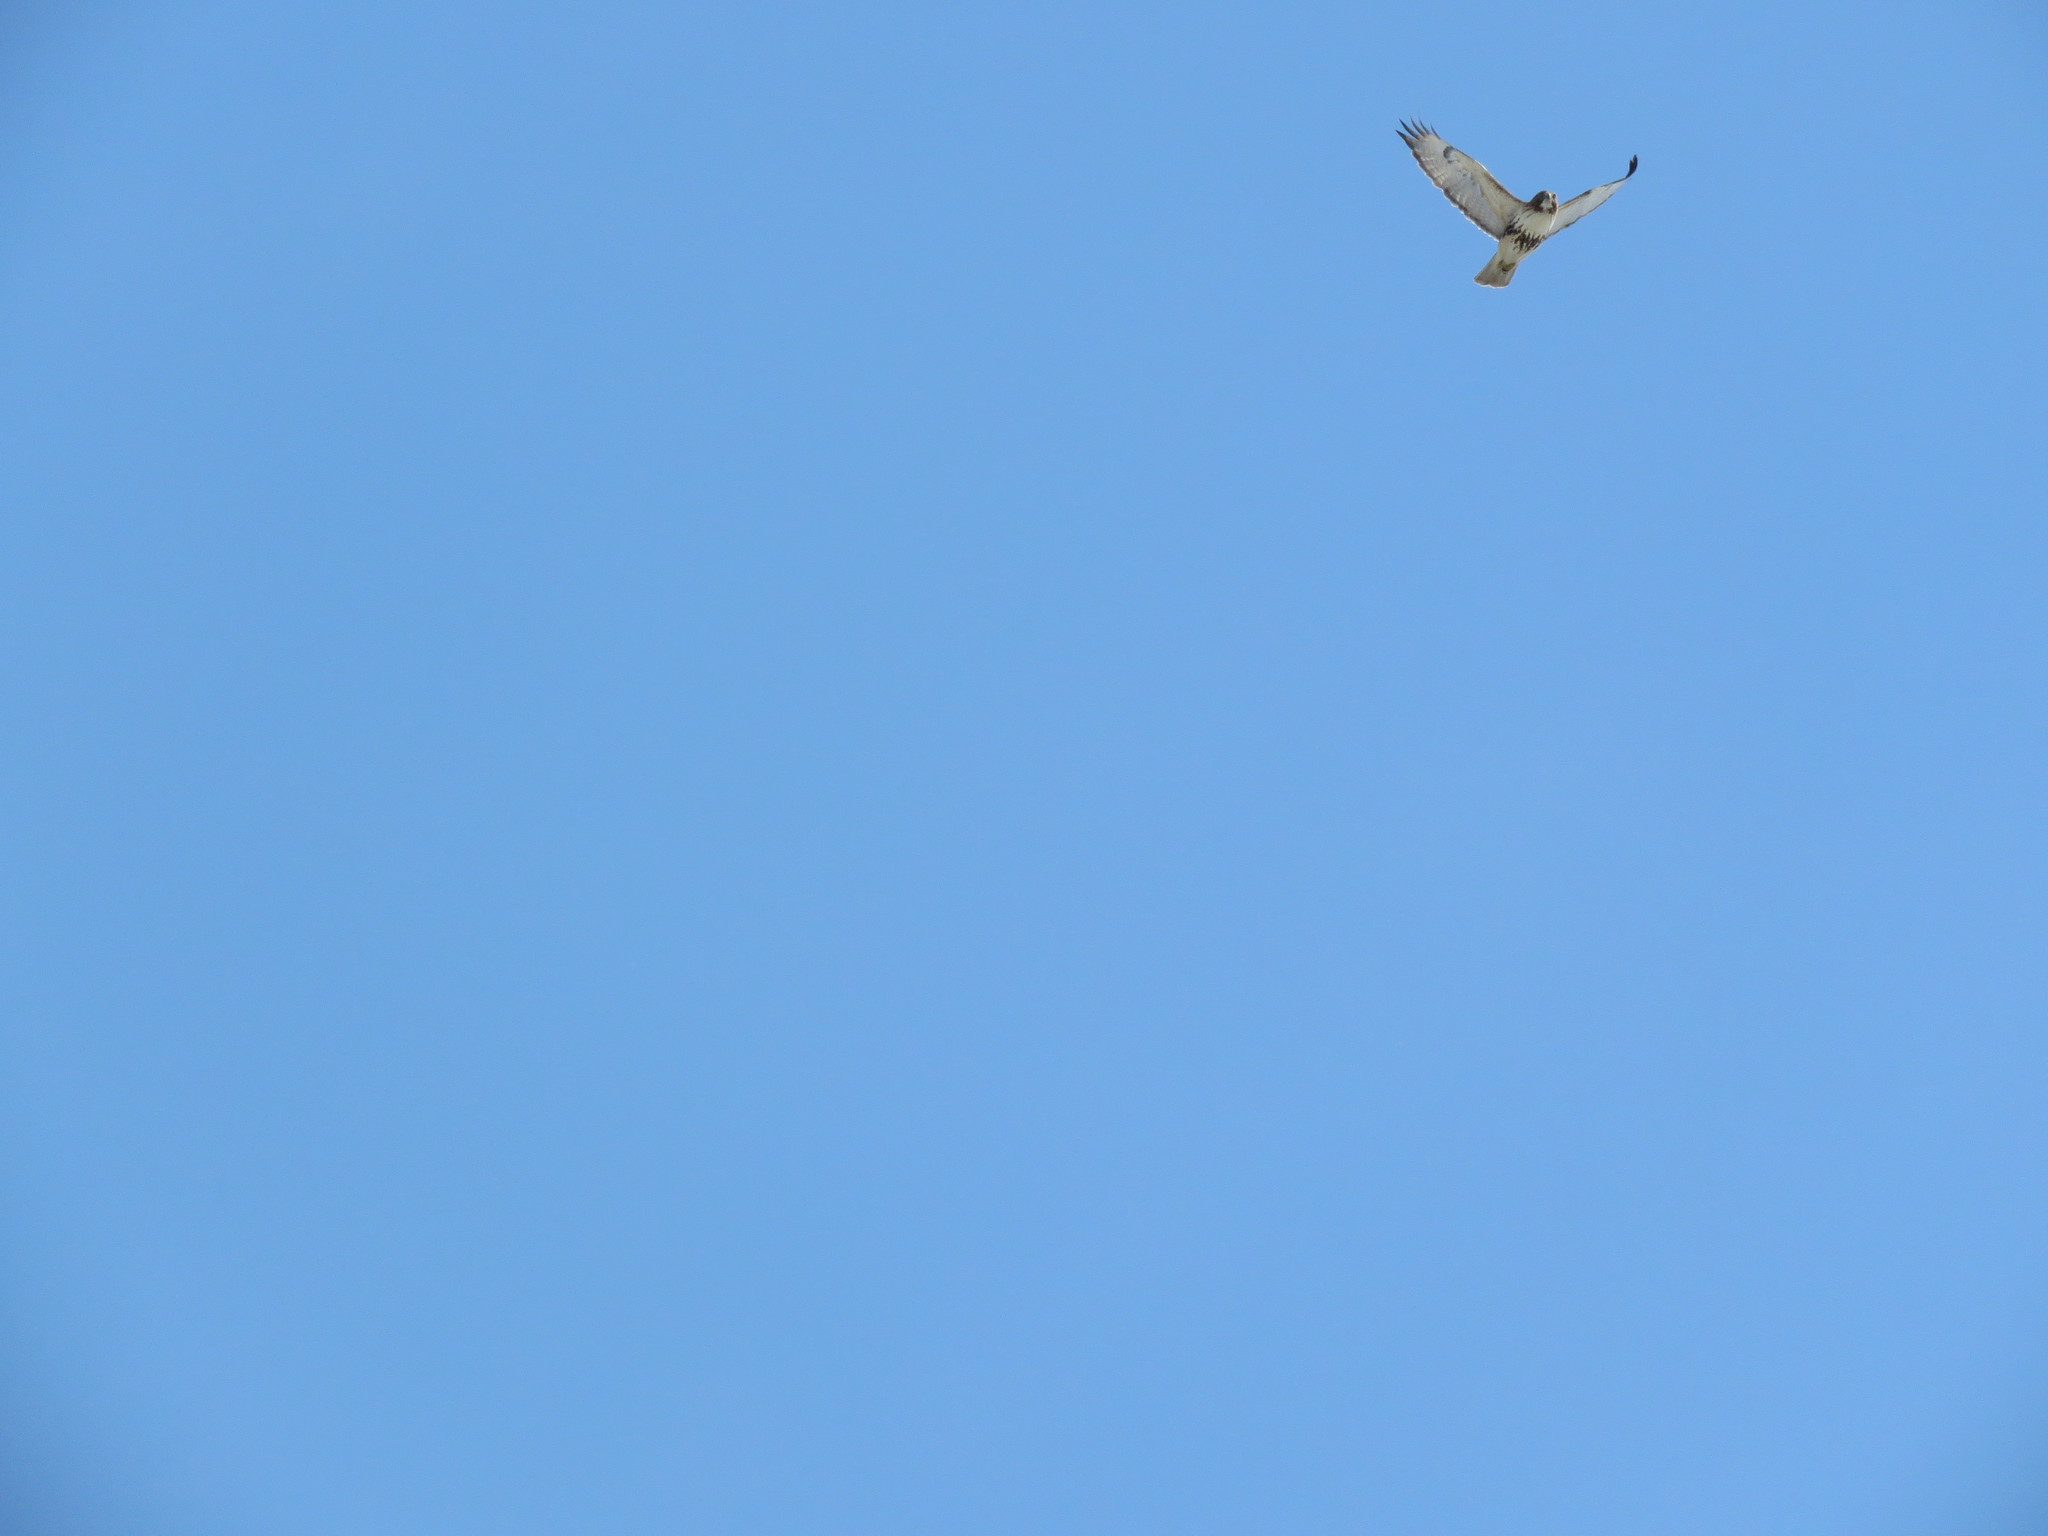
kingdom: Animalia
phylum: Chordata
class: Aves
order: Accipitriformes
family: Accipitridae
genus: Buteo
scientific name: Buteo jamaicensis
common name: Red-tailed hawk
